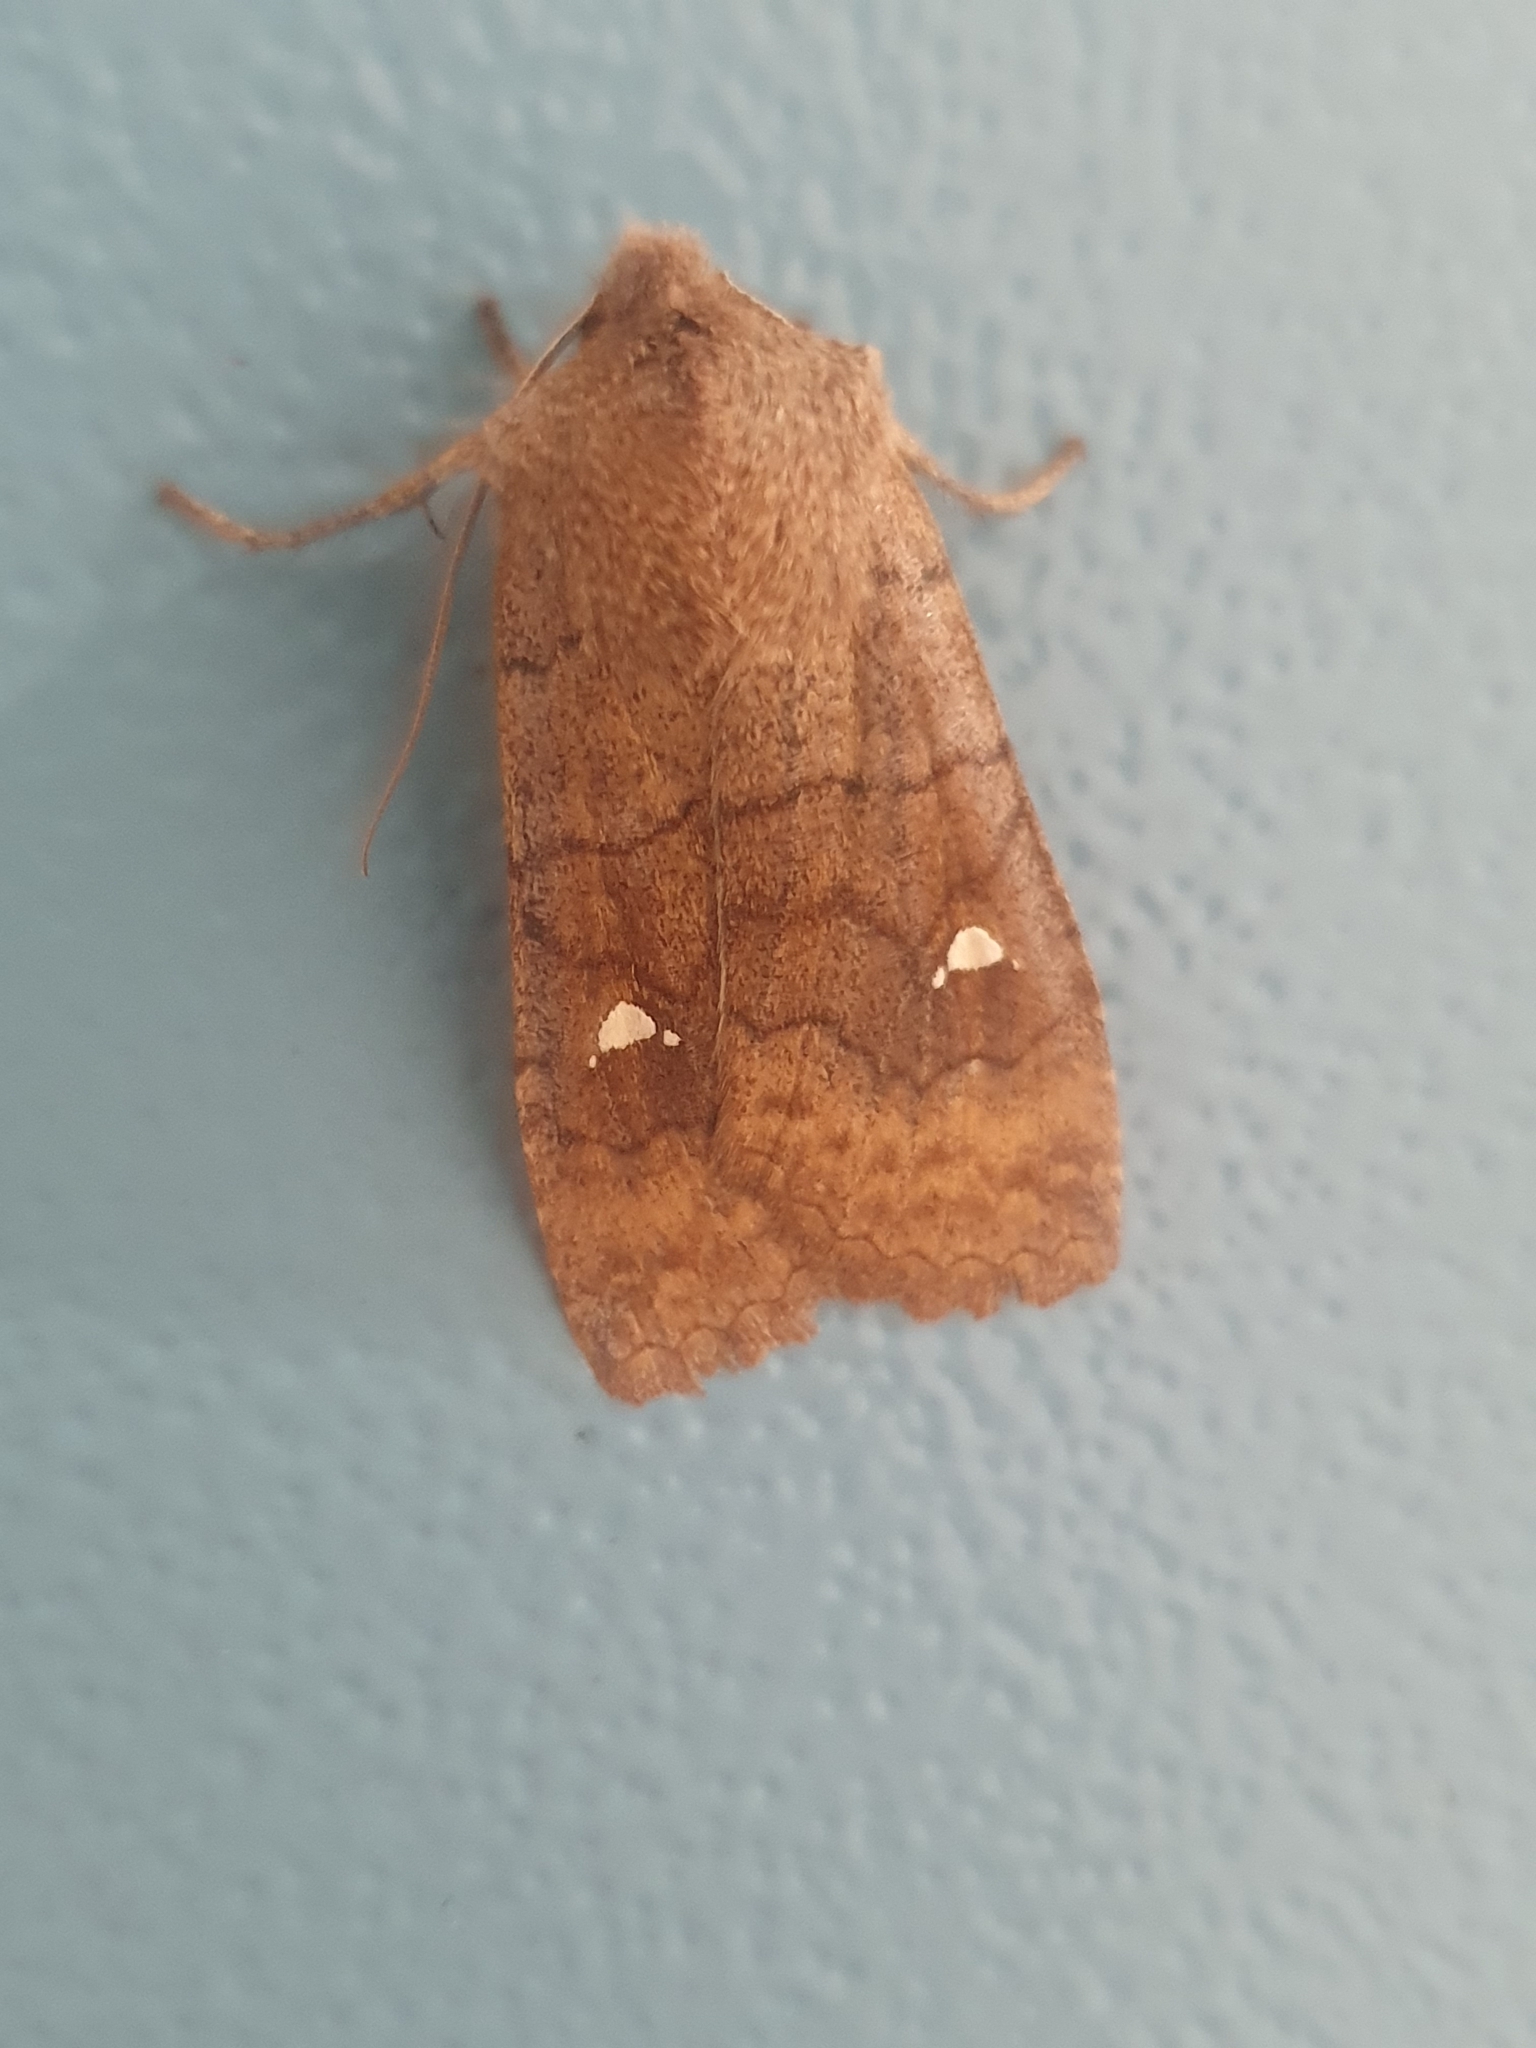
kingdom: Animalia
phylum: Arthropoda
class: Insecta
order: Lepidoptera
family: Noctuidae
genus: Eupsilia
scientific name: Eupsilia transversa
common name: Satellite
